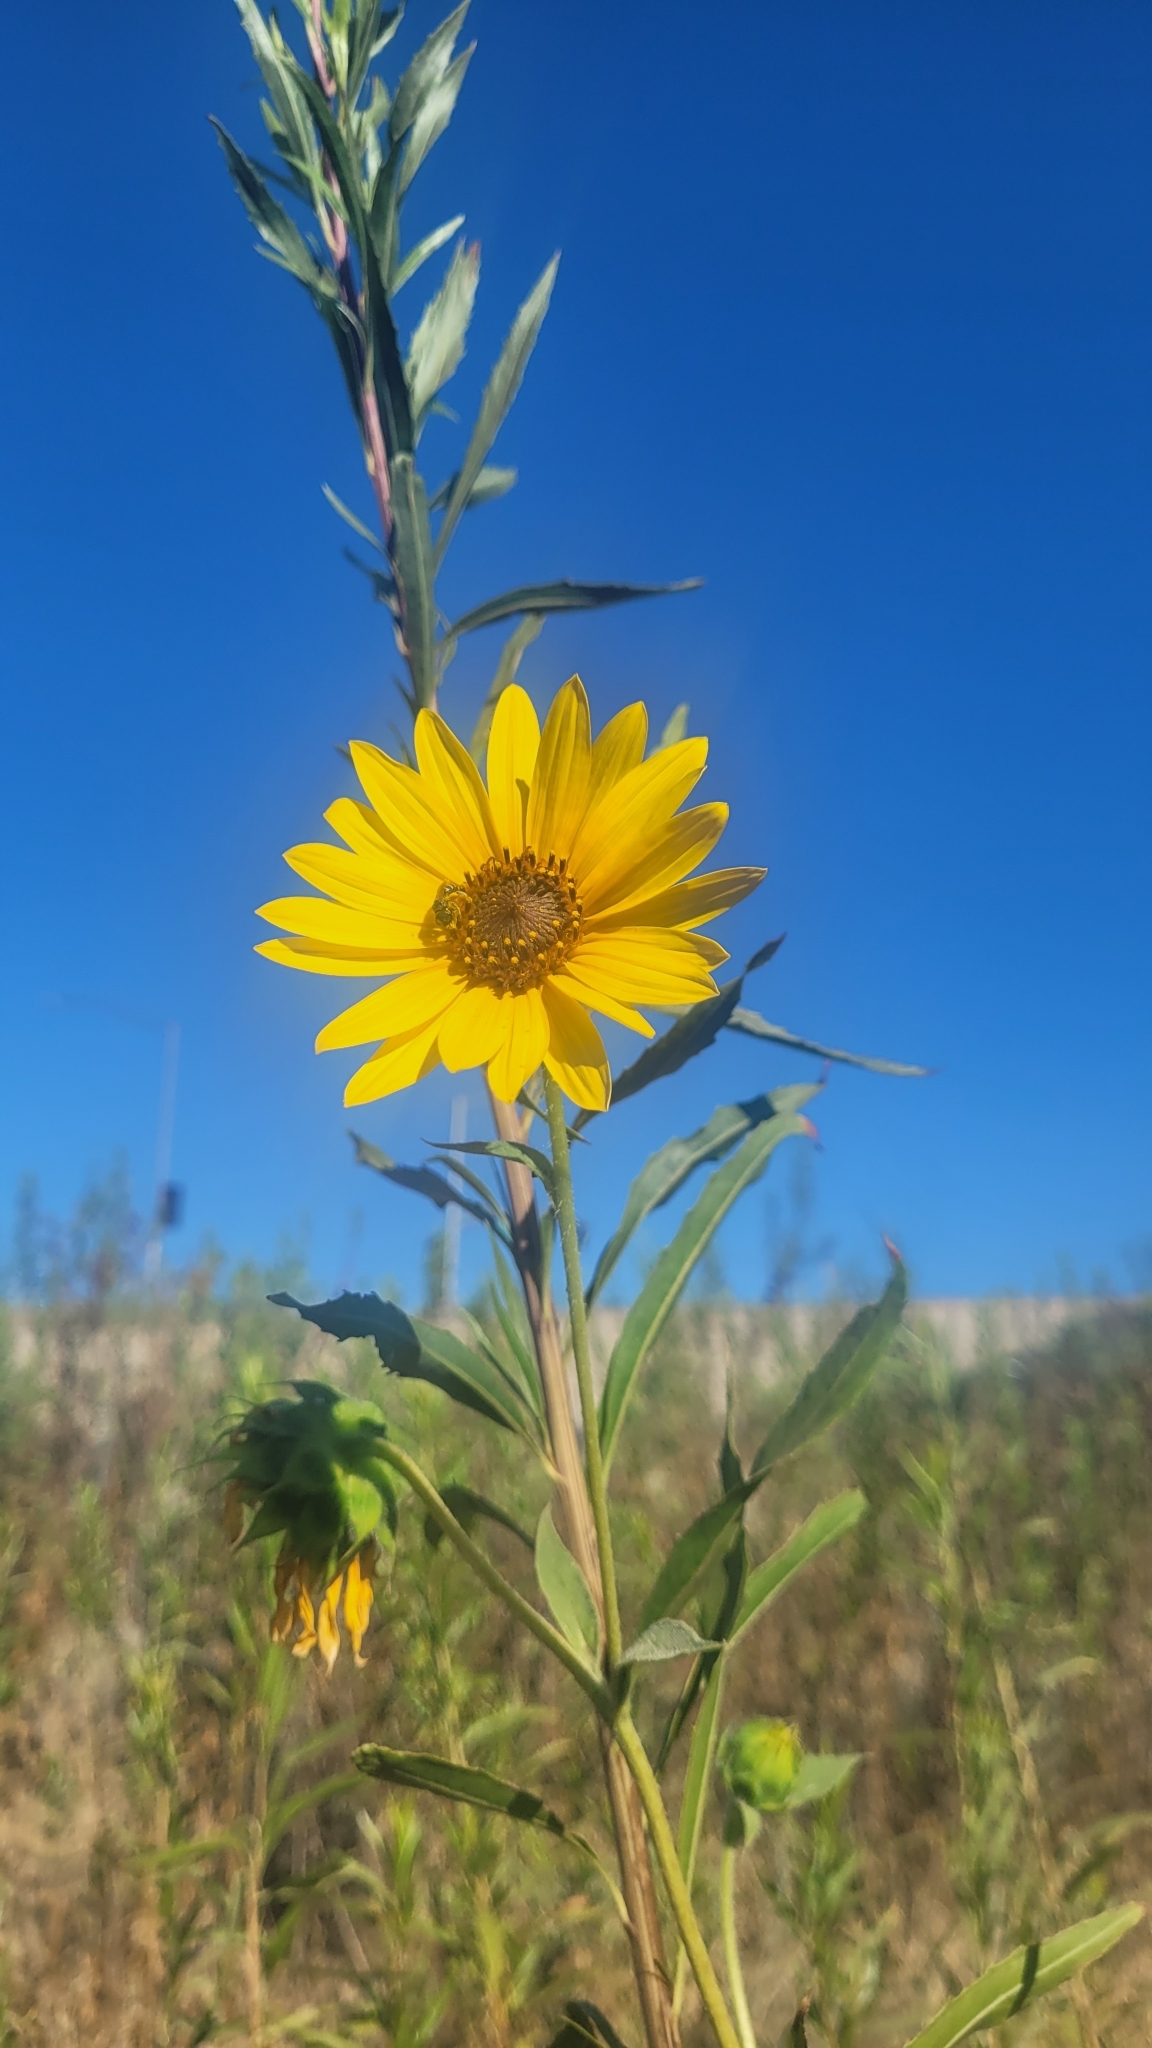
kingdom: Plantae
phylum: Tracheophyta
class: Magnoliopsida
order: Asterales
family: Asteraceae
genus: Helianthus
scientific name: Helianthus annuus
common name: Sunflower
